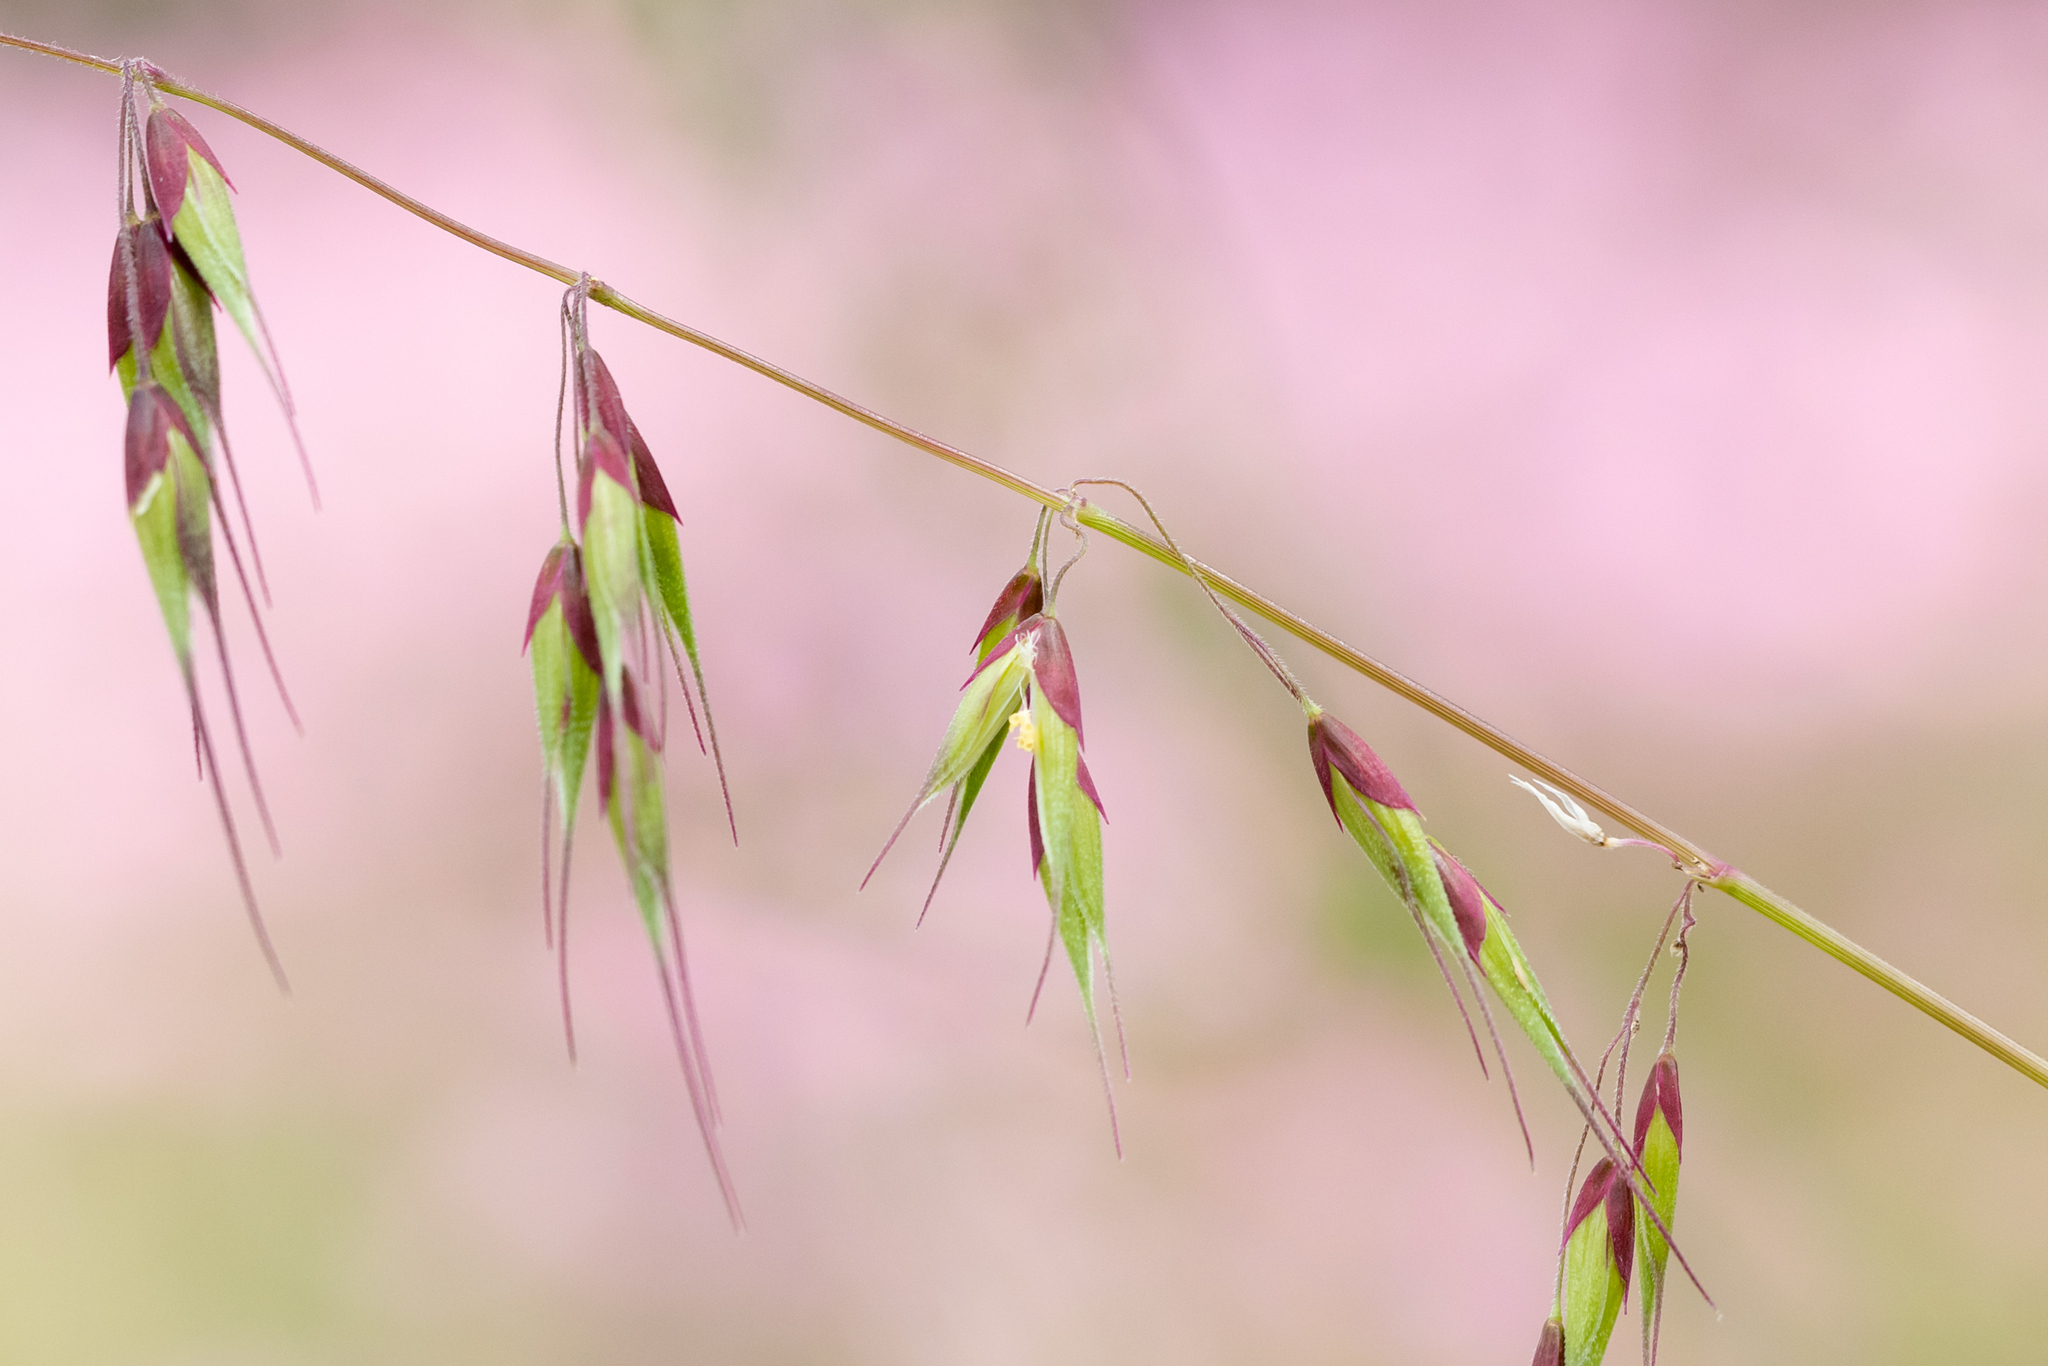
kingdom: Plantae
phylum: Tracheophyta
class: Liliopsida
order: Poales
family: Poaceae
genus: Ehrharta
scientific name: Ehrharta longiflora
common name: Longflowered veldtgrass
